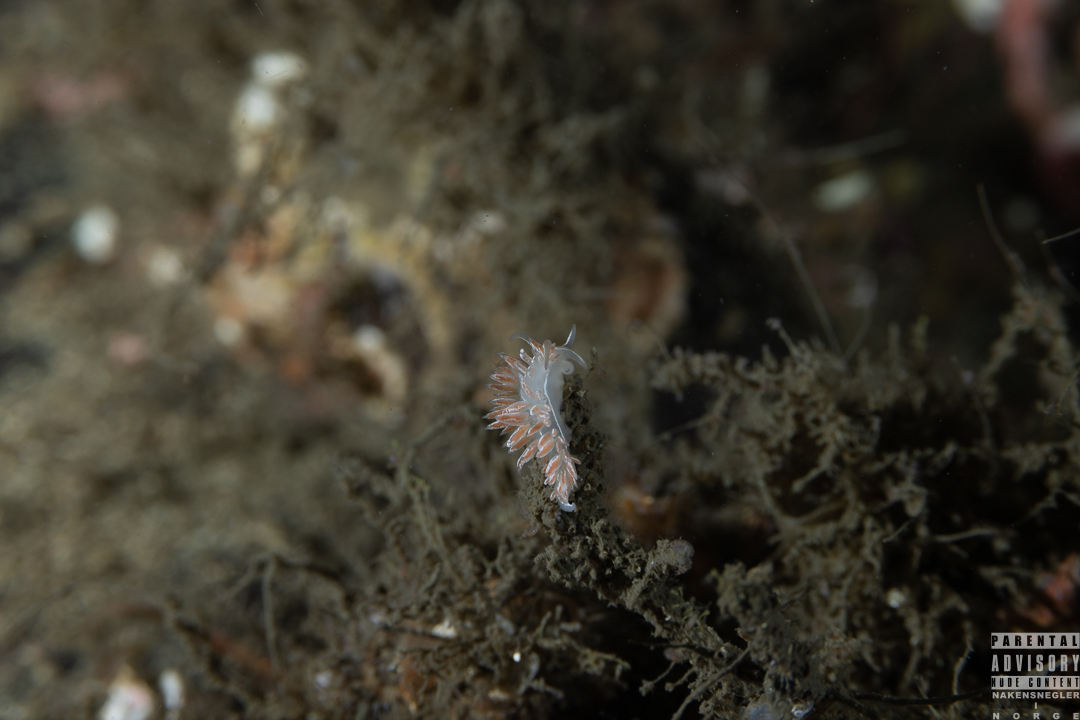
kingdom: Animalia
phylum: Mollusca
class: Gastropoda
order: Nudibranchia
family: Coryphellidae
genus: Coryphella
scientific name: Coryphella chriskaugei
